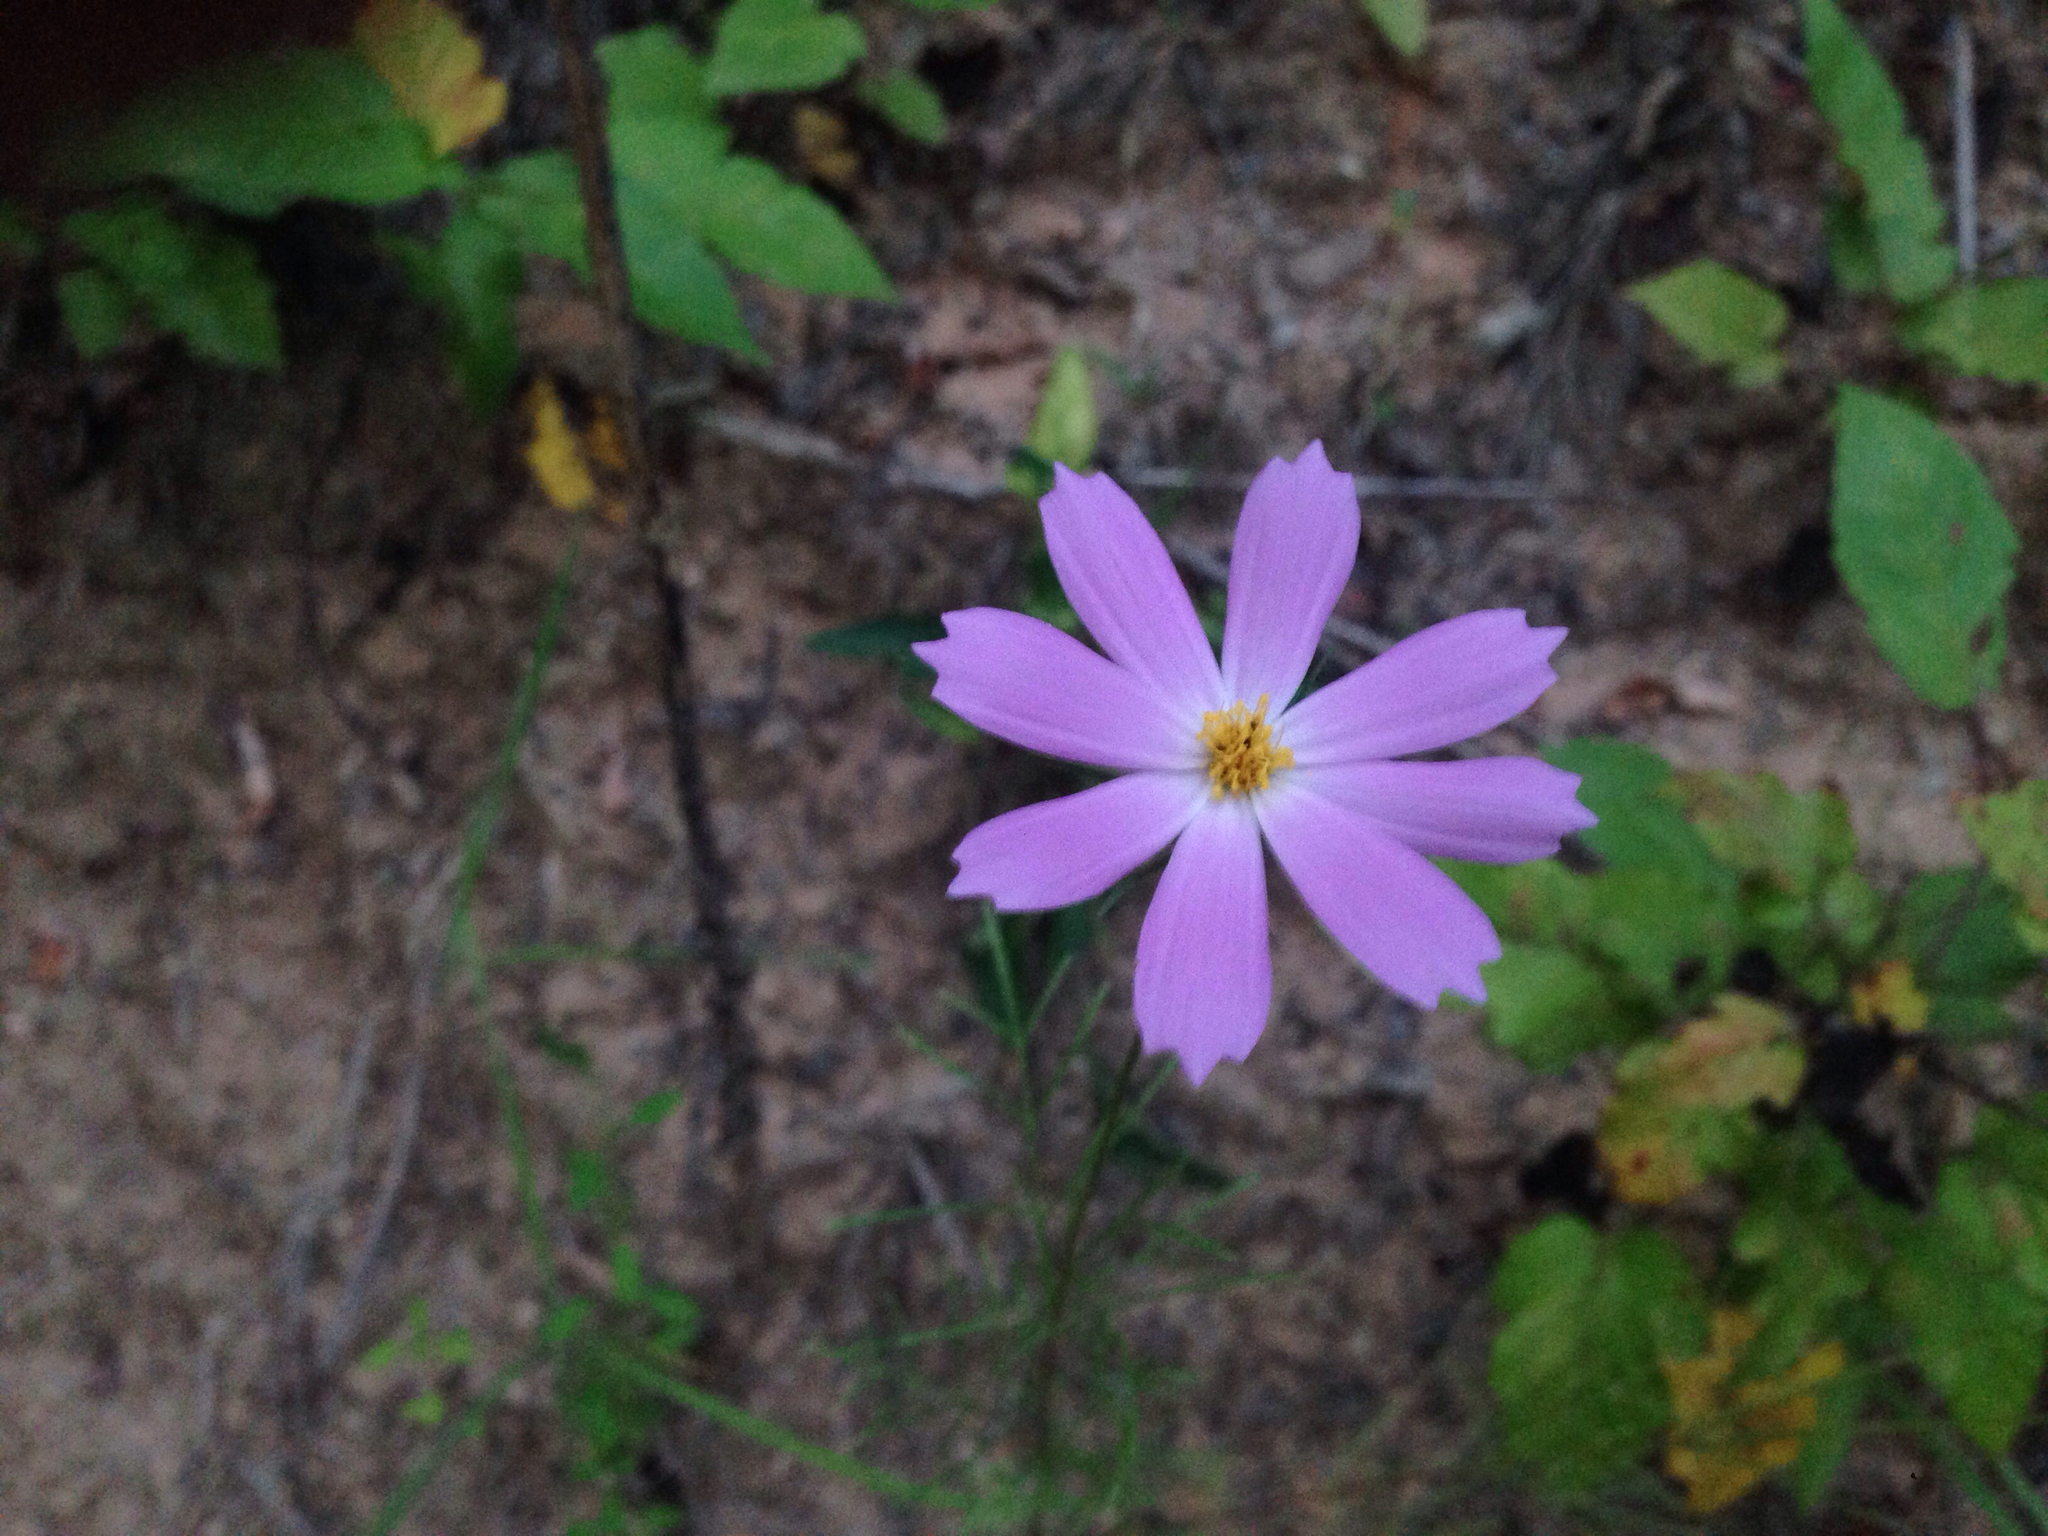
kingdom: Plantae
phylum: Tracheophyta
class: Magnoliopsida
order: Asterales
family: Asteraceae
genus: Cosmos
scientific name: Cosmos bipinnatus
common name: Garden cosmos
